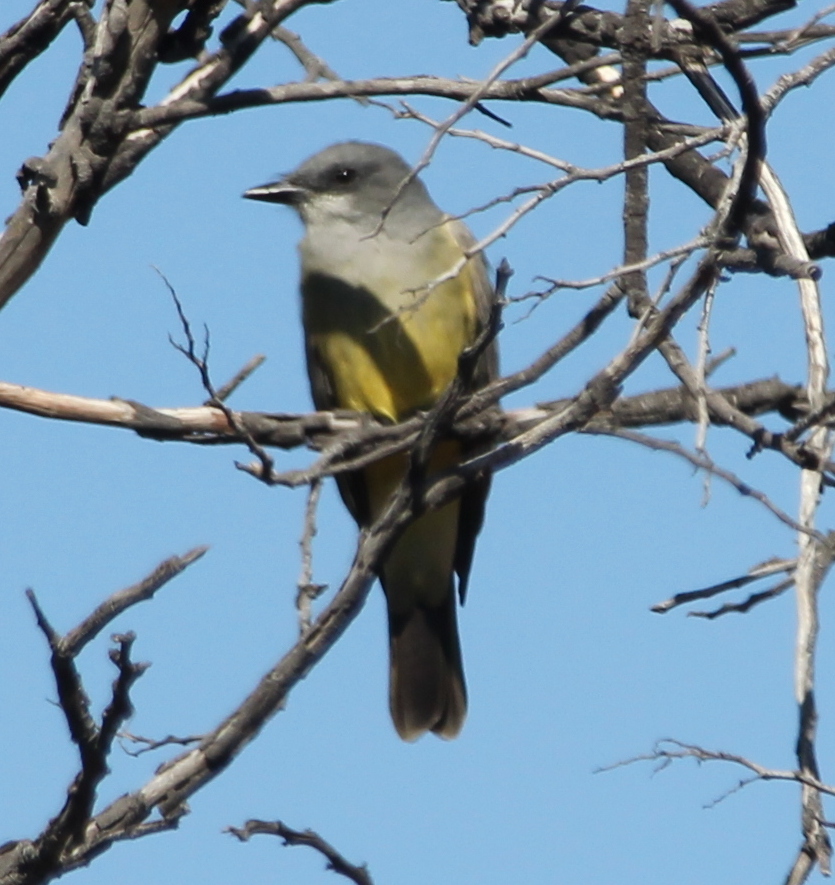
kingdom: Animalia
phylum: Chordata
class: Aves
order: Passeriformes
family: Tyrannidae
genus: Tyrannus
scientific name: Tyrannus vociferans
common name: Cassin's kingbird
